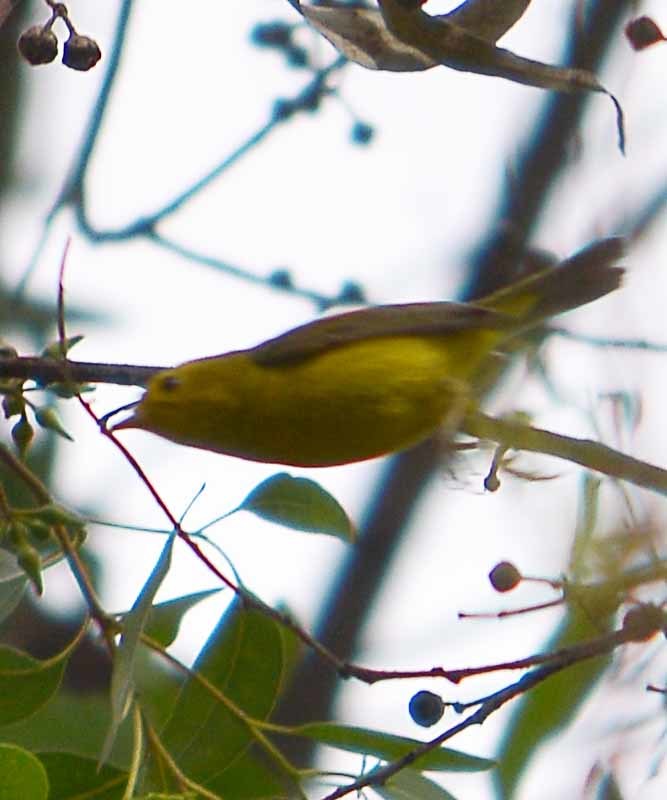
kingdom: Animalia
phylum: Chordata
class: Aves
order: Passeriformes
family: Parulidae
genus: Cardellina
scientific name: Cardellina pusilla
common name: Wilson's warbler
